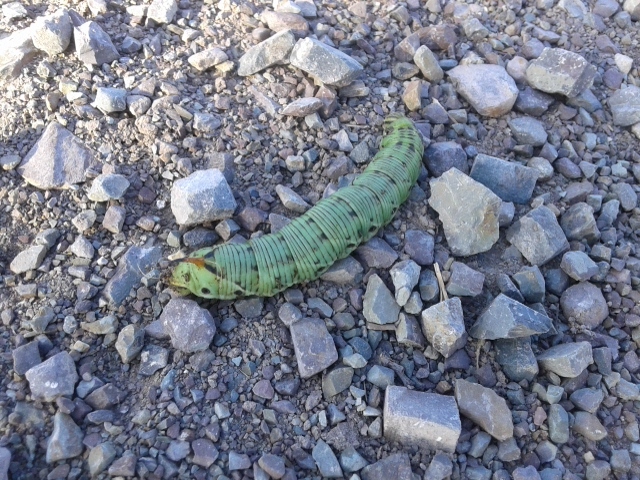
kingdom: Animalia
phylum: Arthropoda
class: Insecta
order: Lepidoptera
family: Sphingidae
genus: Agrius
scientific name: Agrius convolvuli
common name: Convolvulus hawkmoth
